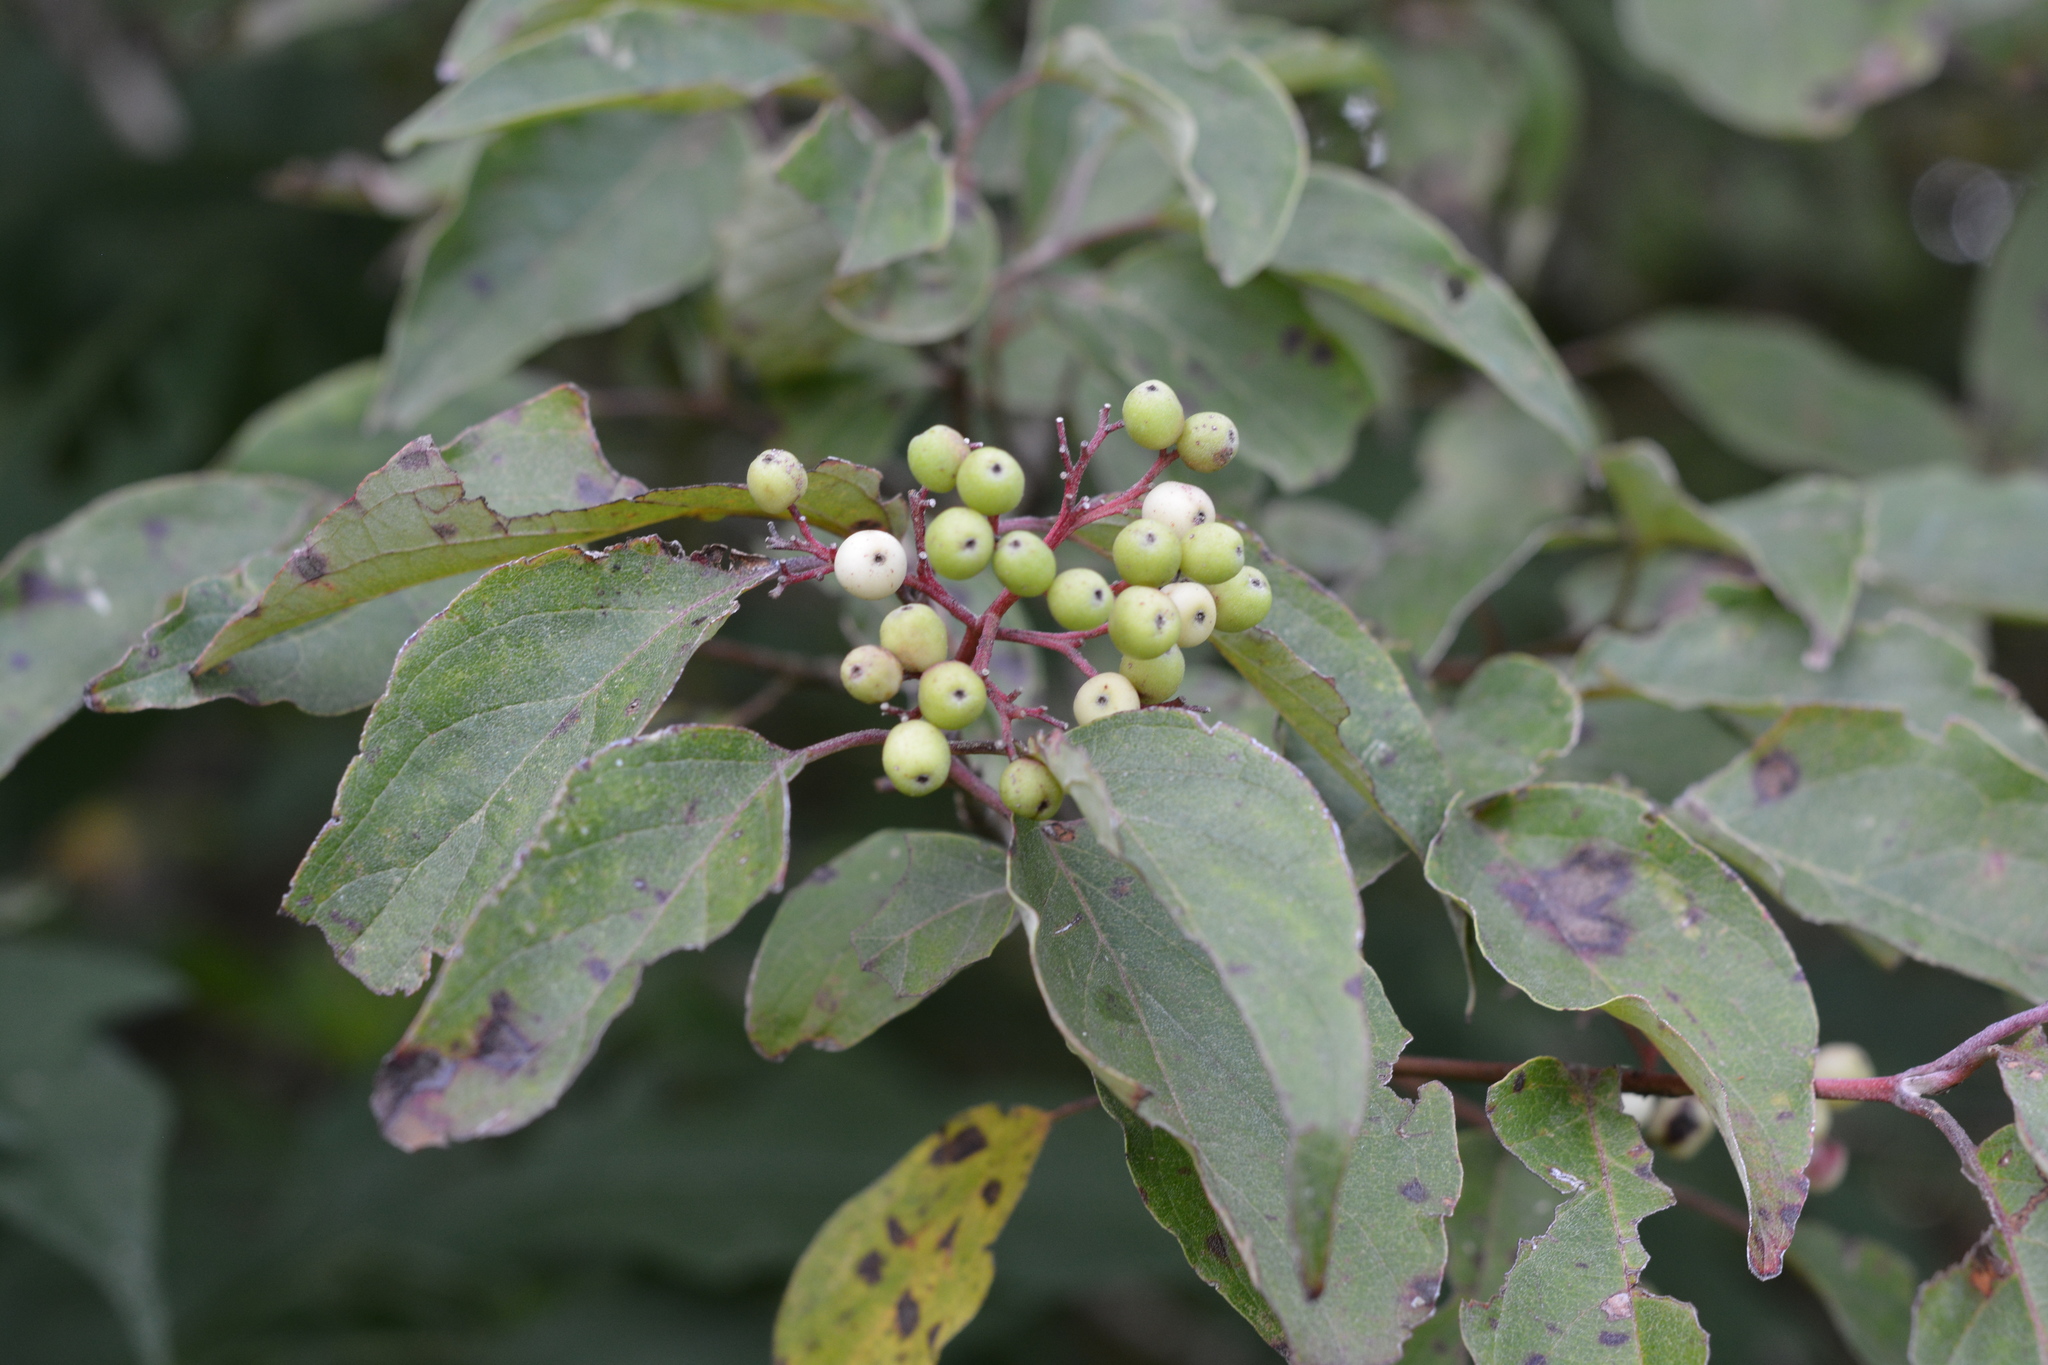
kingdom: Plantae
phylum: Tracheophyta
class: Magnoliopsida
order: Cornales
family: Cornaceae
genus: Cornus
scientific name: Cornus drummondii
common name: Rough-leaf dogwood
